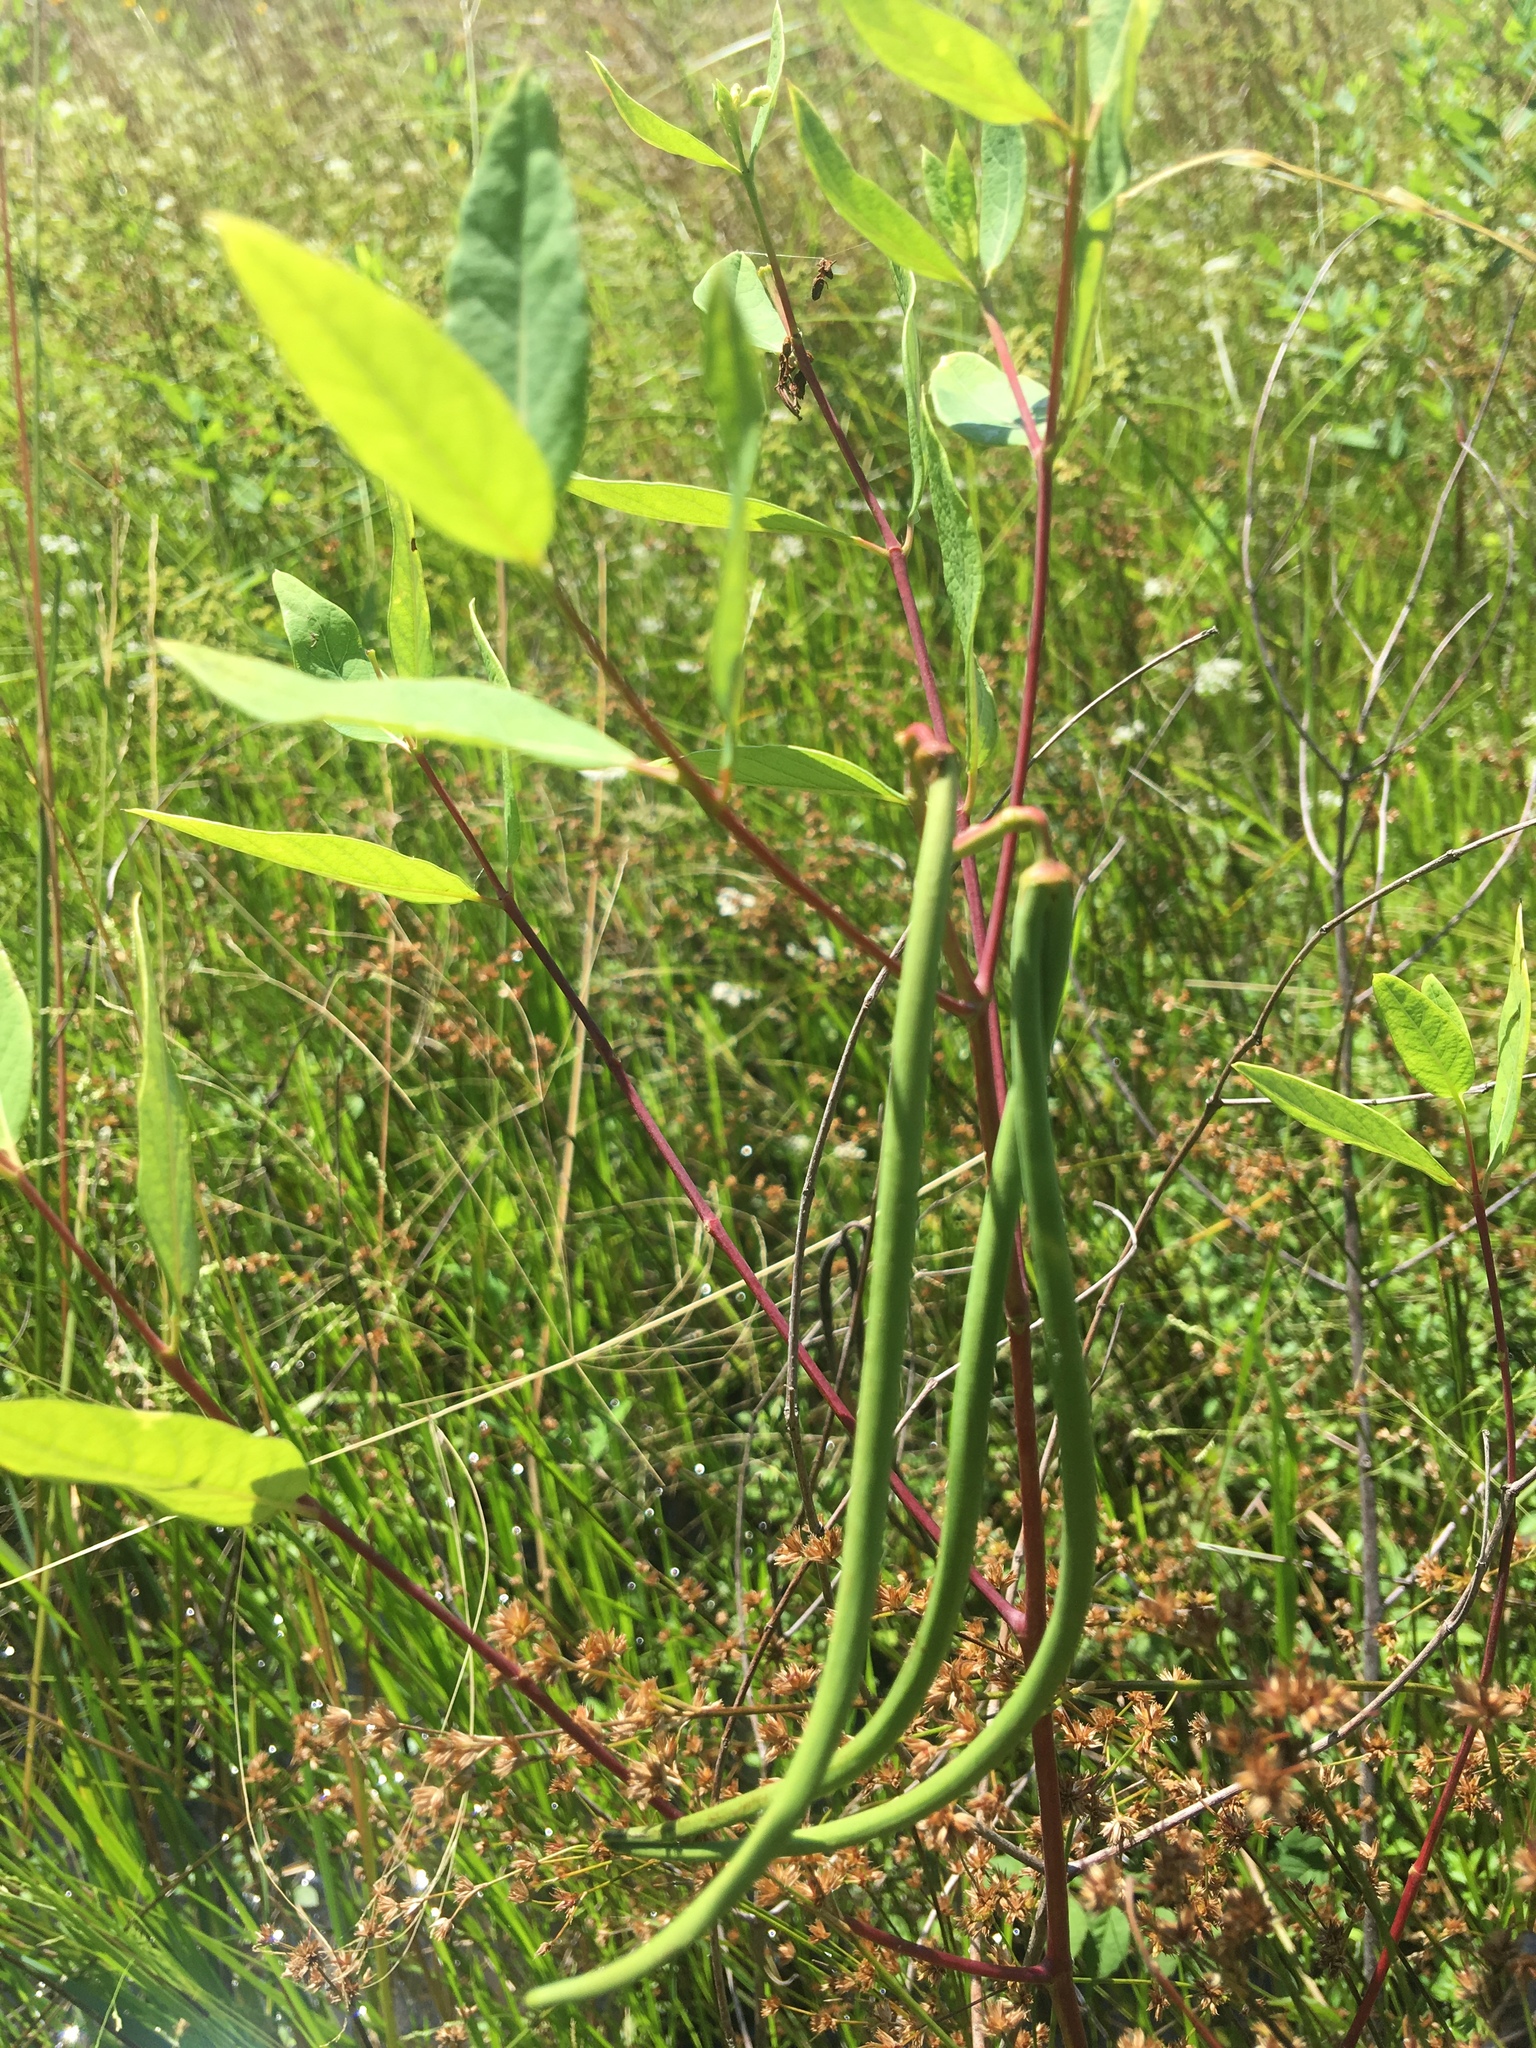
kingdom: Plantae
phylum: Tracheophyta
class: Magnoliopsida
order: Gentianales
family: Apocynaceae
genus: Apocynum
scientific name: Apocynum cannabinum
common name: Hemp dogbane
